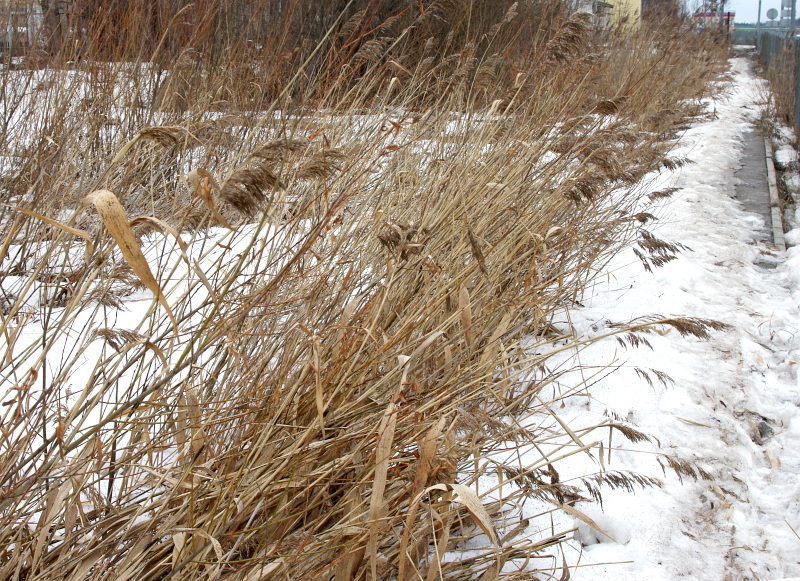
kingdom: Plantae
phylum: Tracheophyta
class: Liliopsida
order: Poales
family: Poaceae
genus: Phragmites
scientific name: Phragmites australis
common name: Common reed
